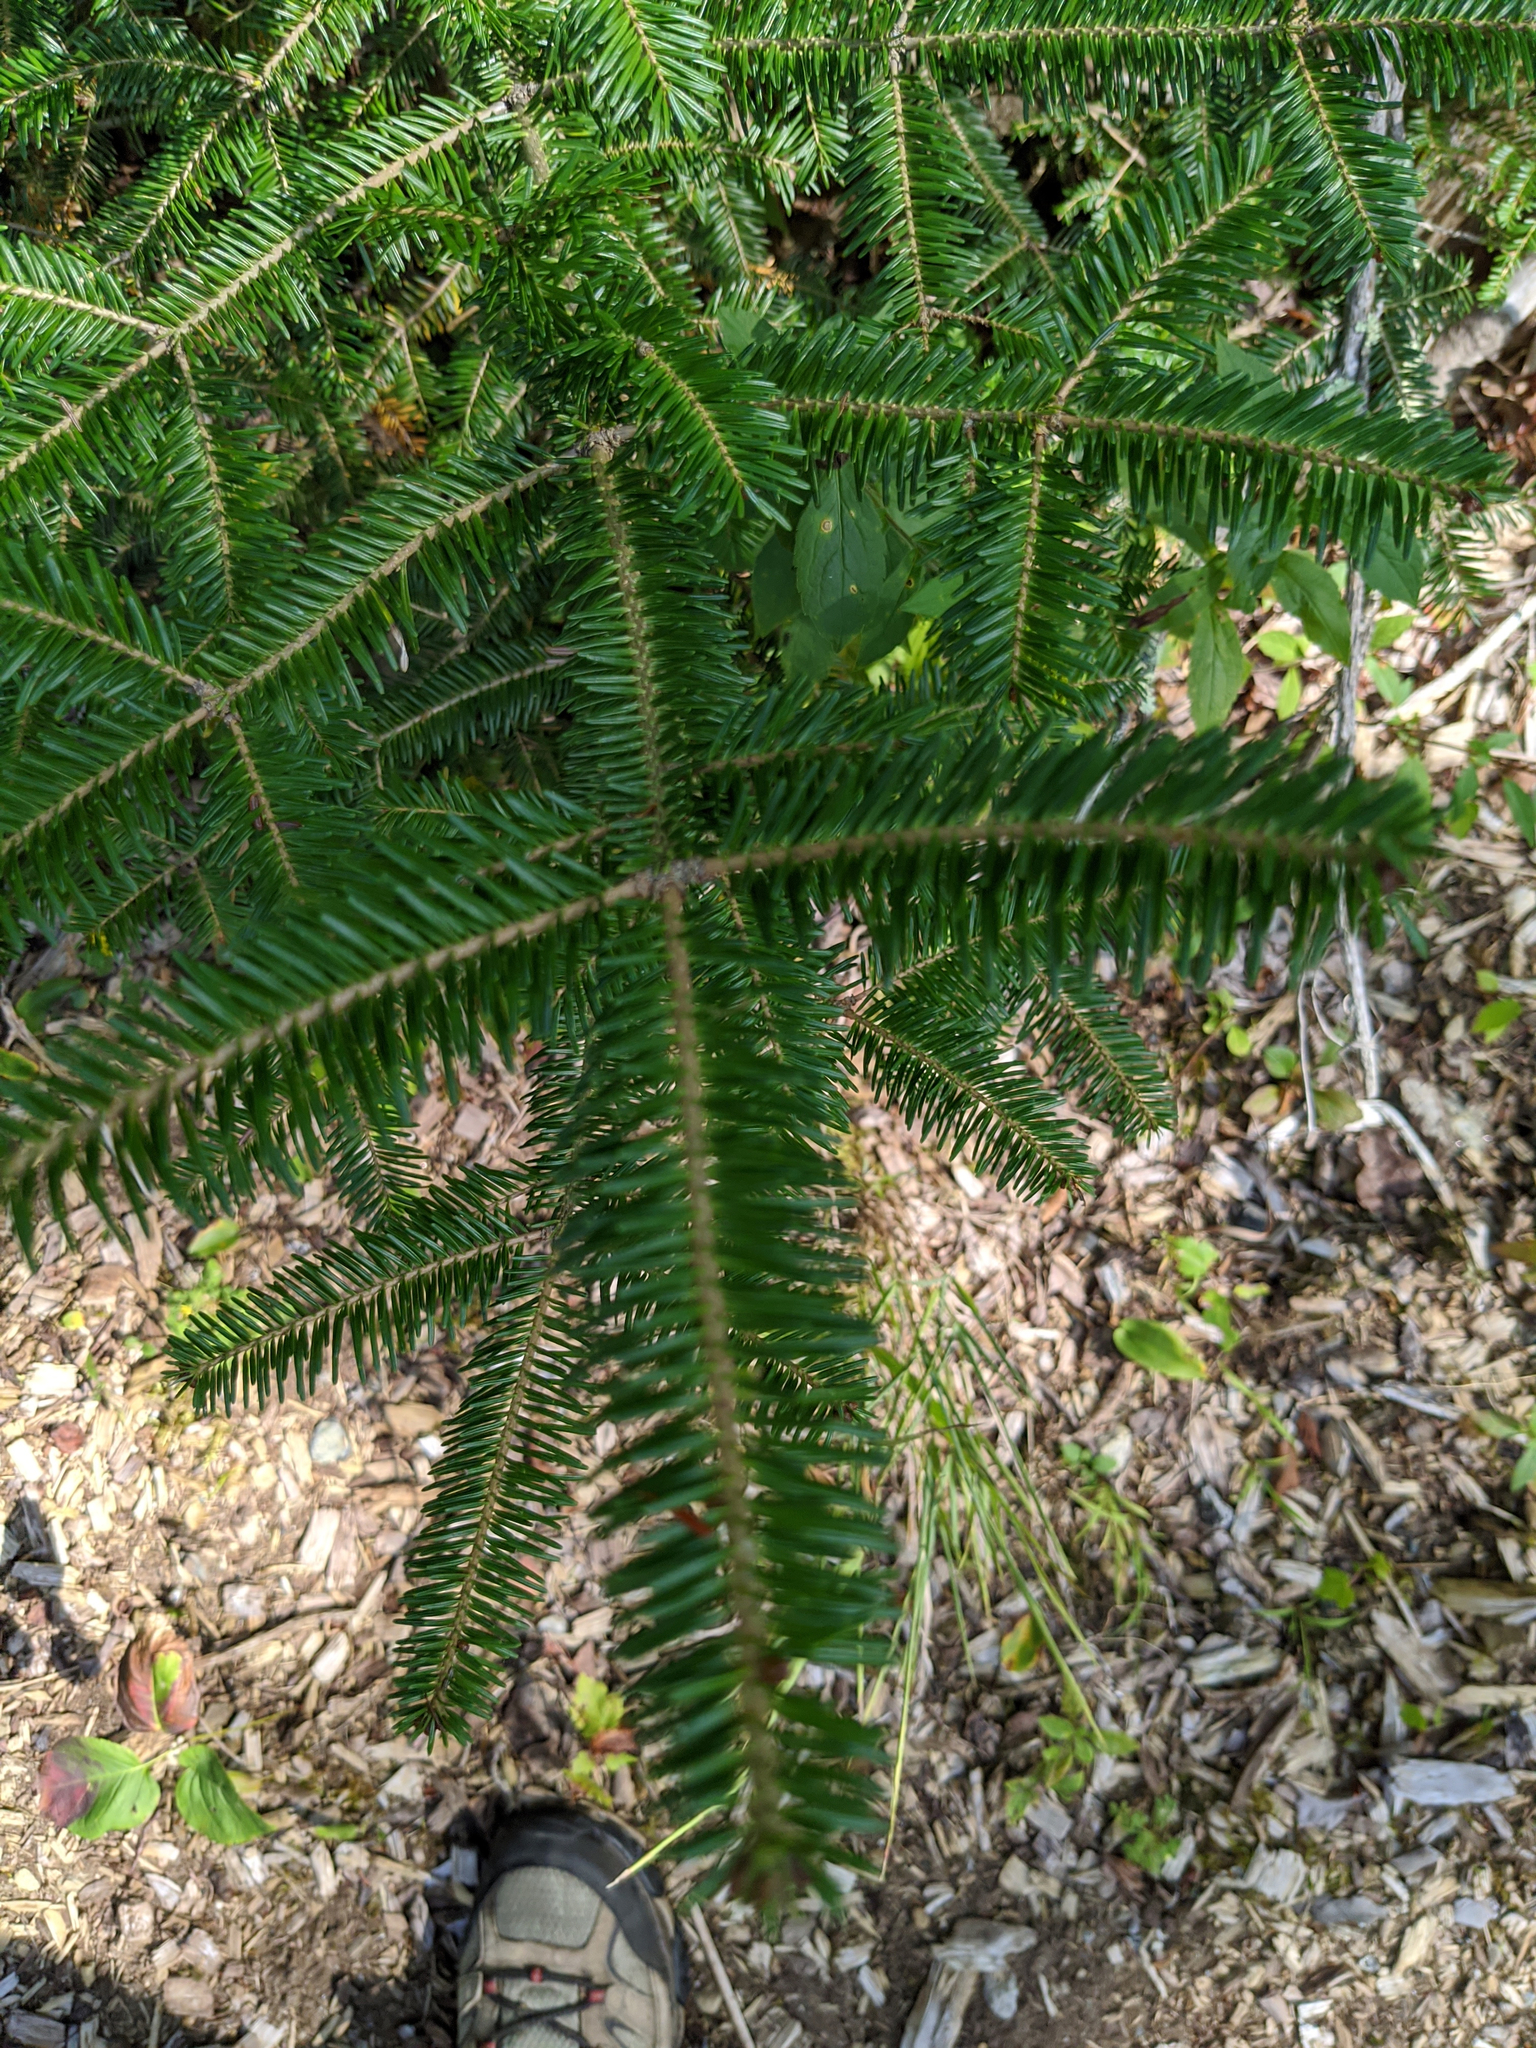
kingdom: Plantae
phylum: Tracheophyta
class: Pinopsida
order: Pinales
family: Pinaceae
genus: Abies
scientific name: Abies balsamea
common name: Balsam fir
